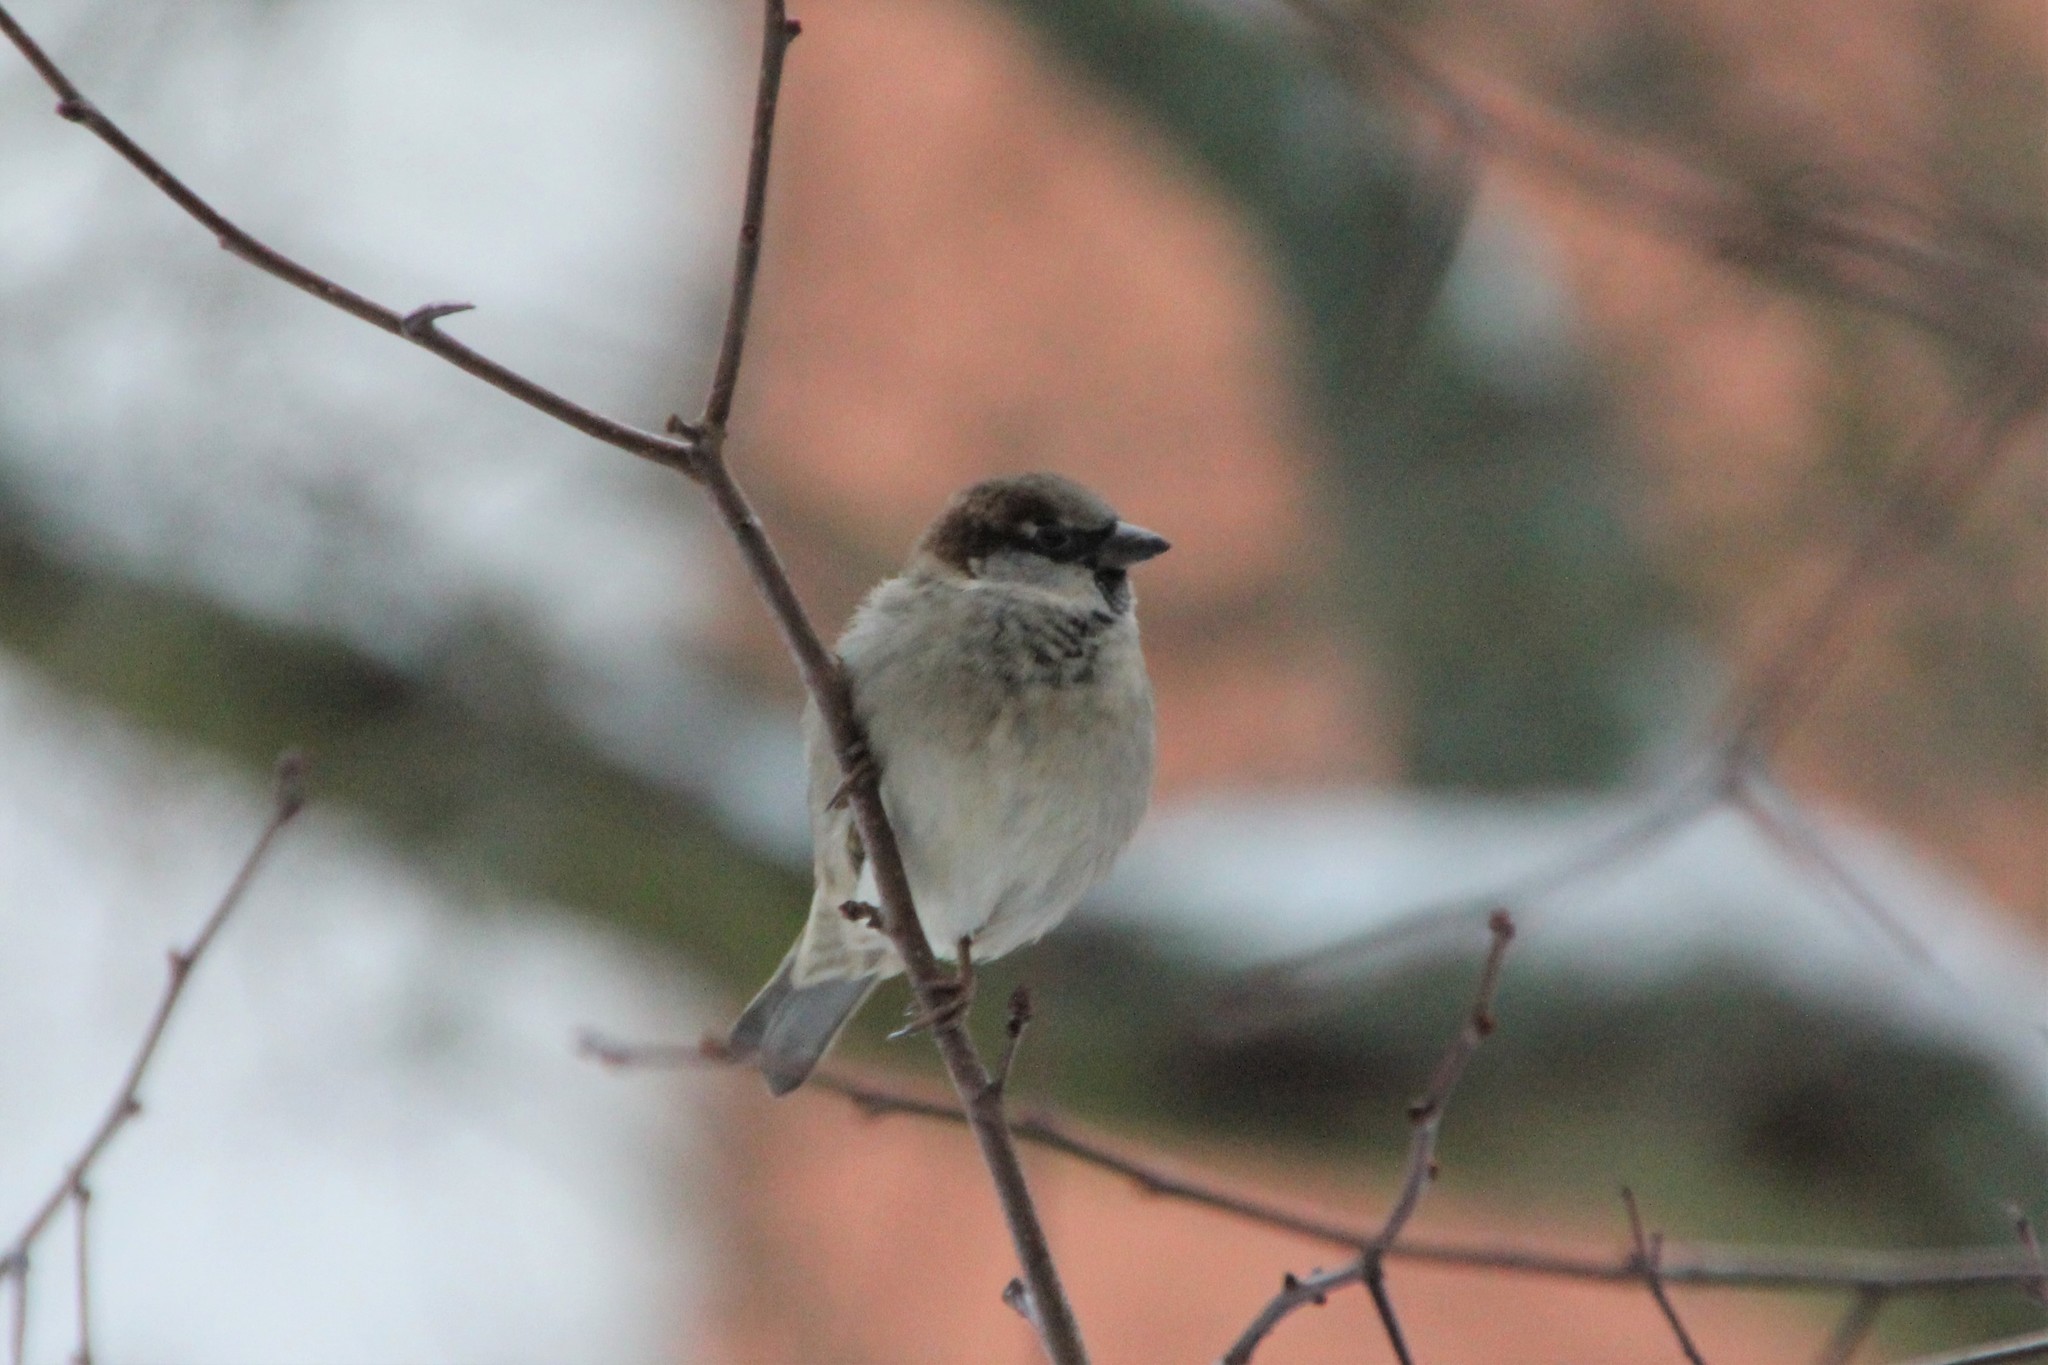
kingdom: Animalia
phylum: Chordata
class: Aves
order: Passeriformes
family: Passeridae
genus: Passer
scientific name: Passer domesticus
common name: House sparrow
